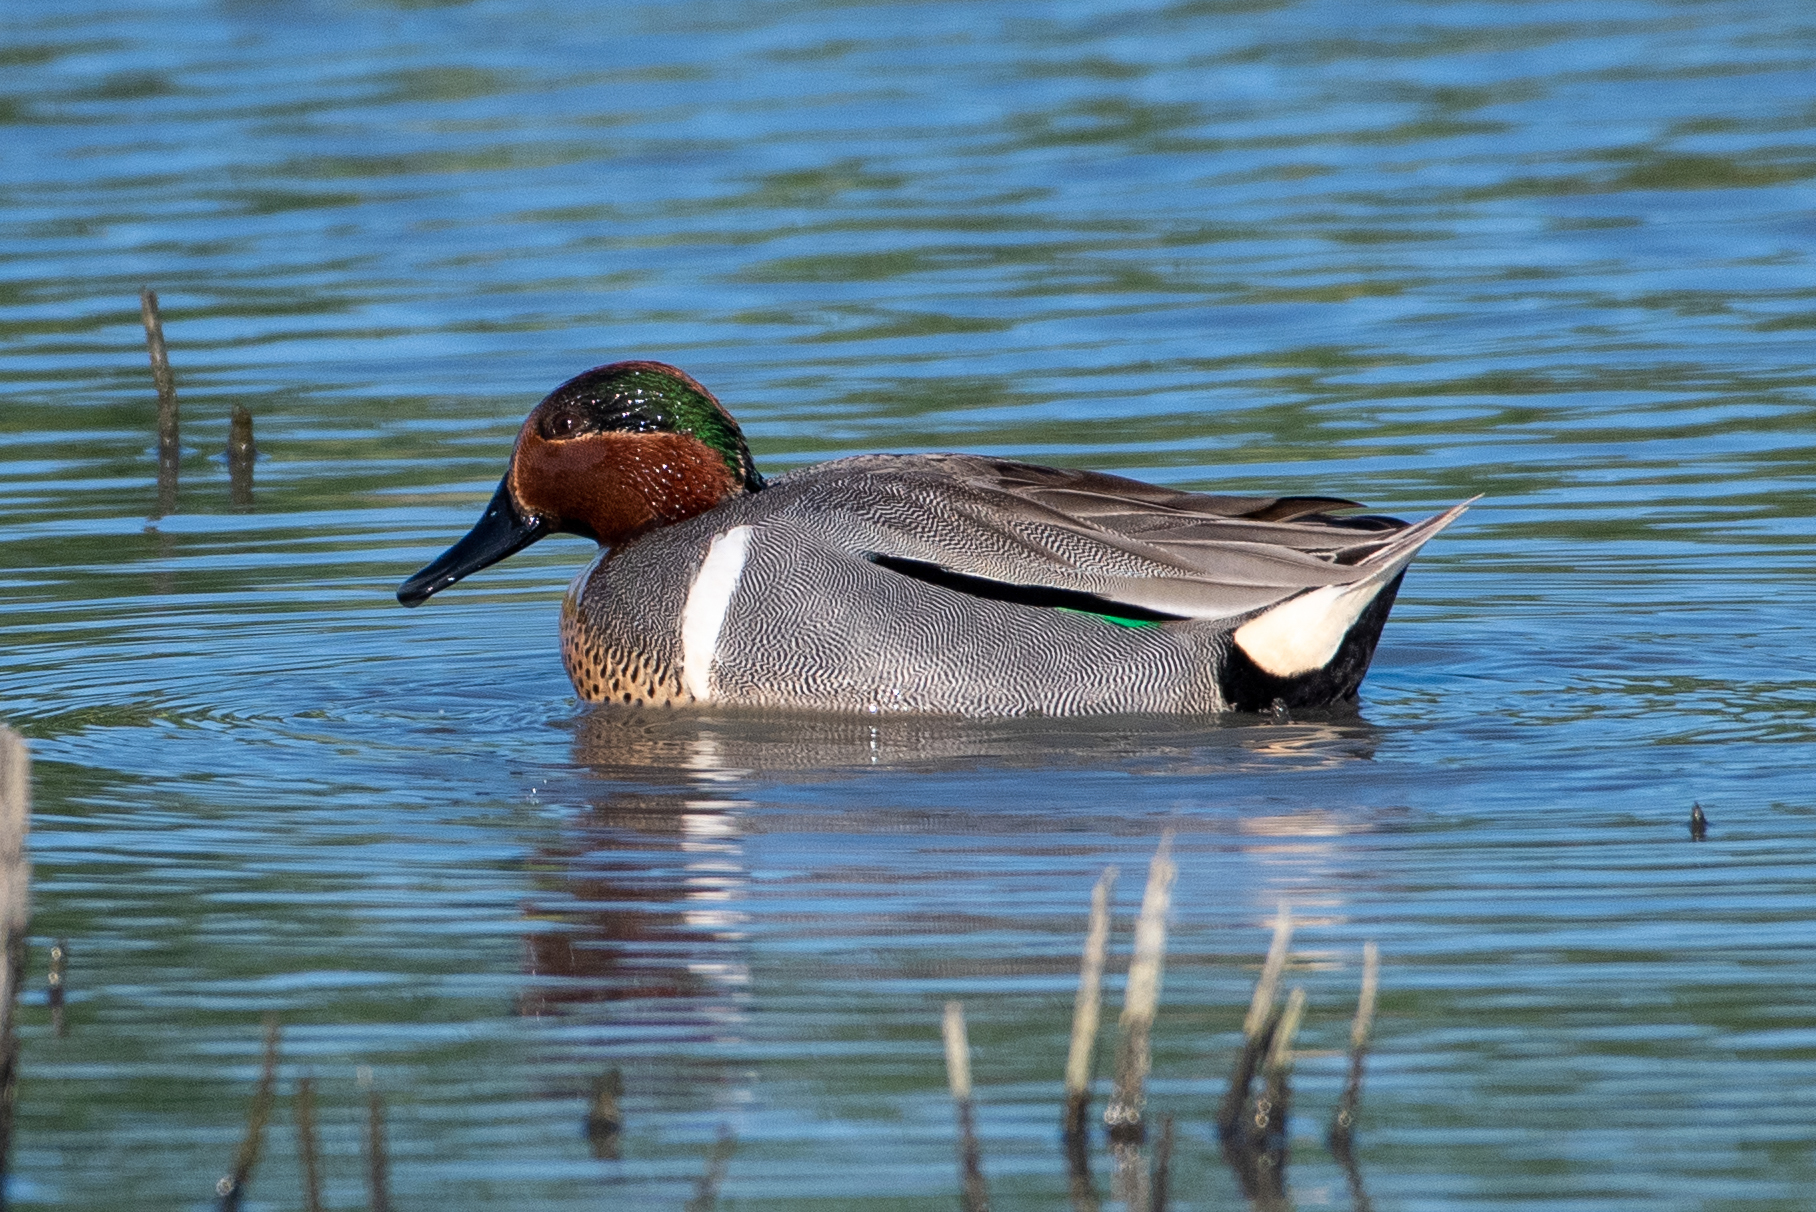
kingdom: Animalia
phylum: Chordata
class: Aves
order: Anseriformes
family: Anatidae
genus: Anas
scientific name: Anas crecca
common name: Eurasian teal
